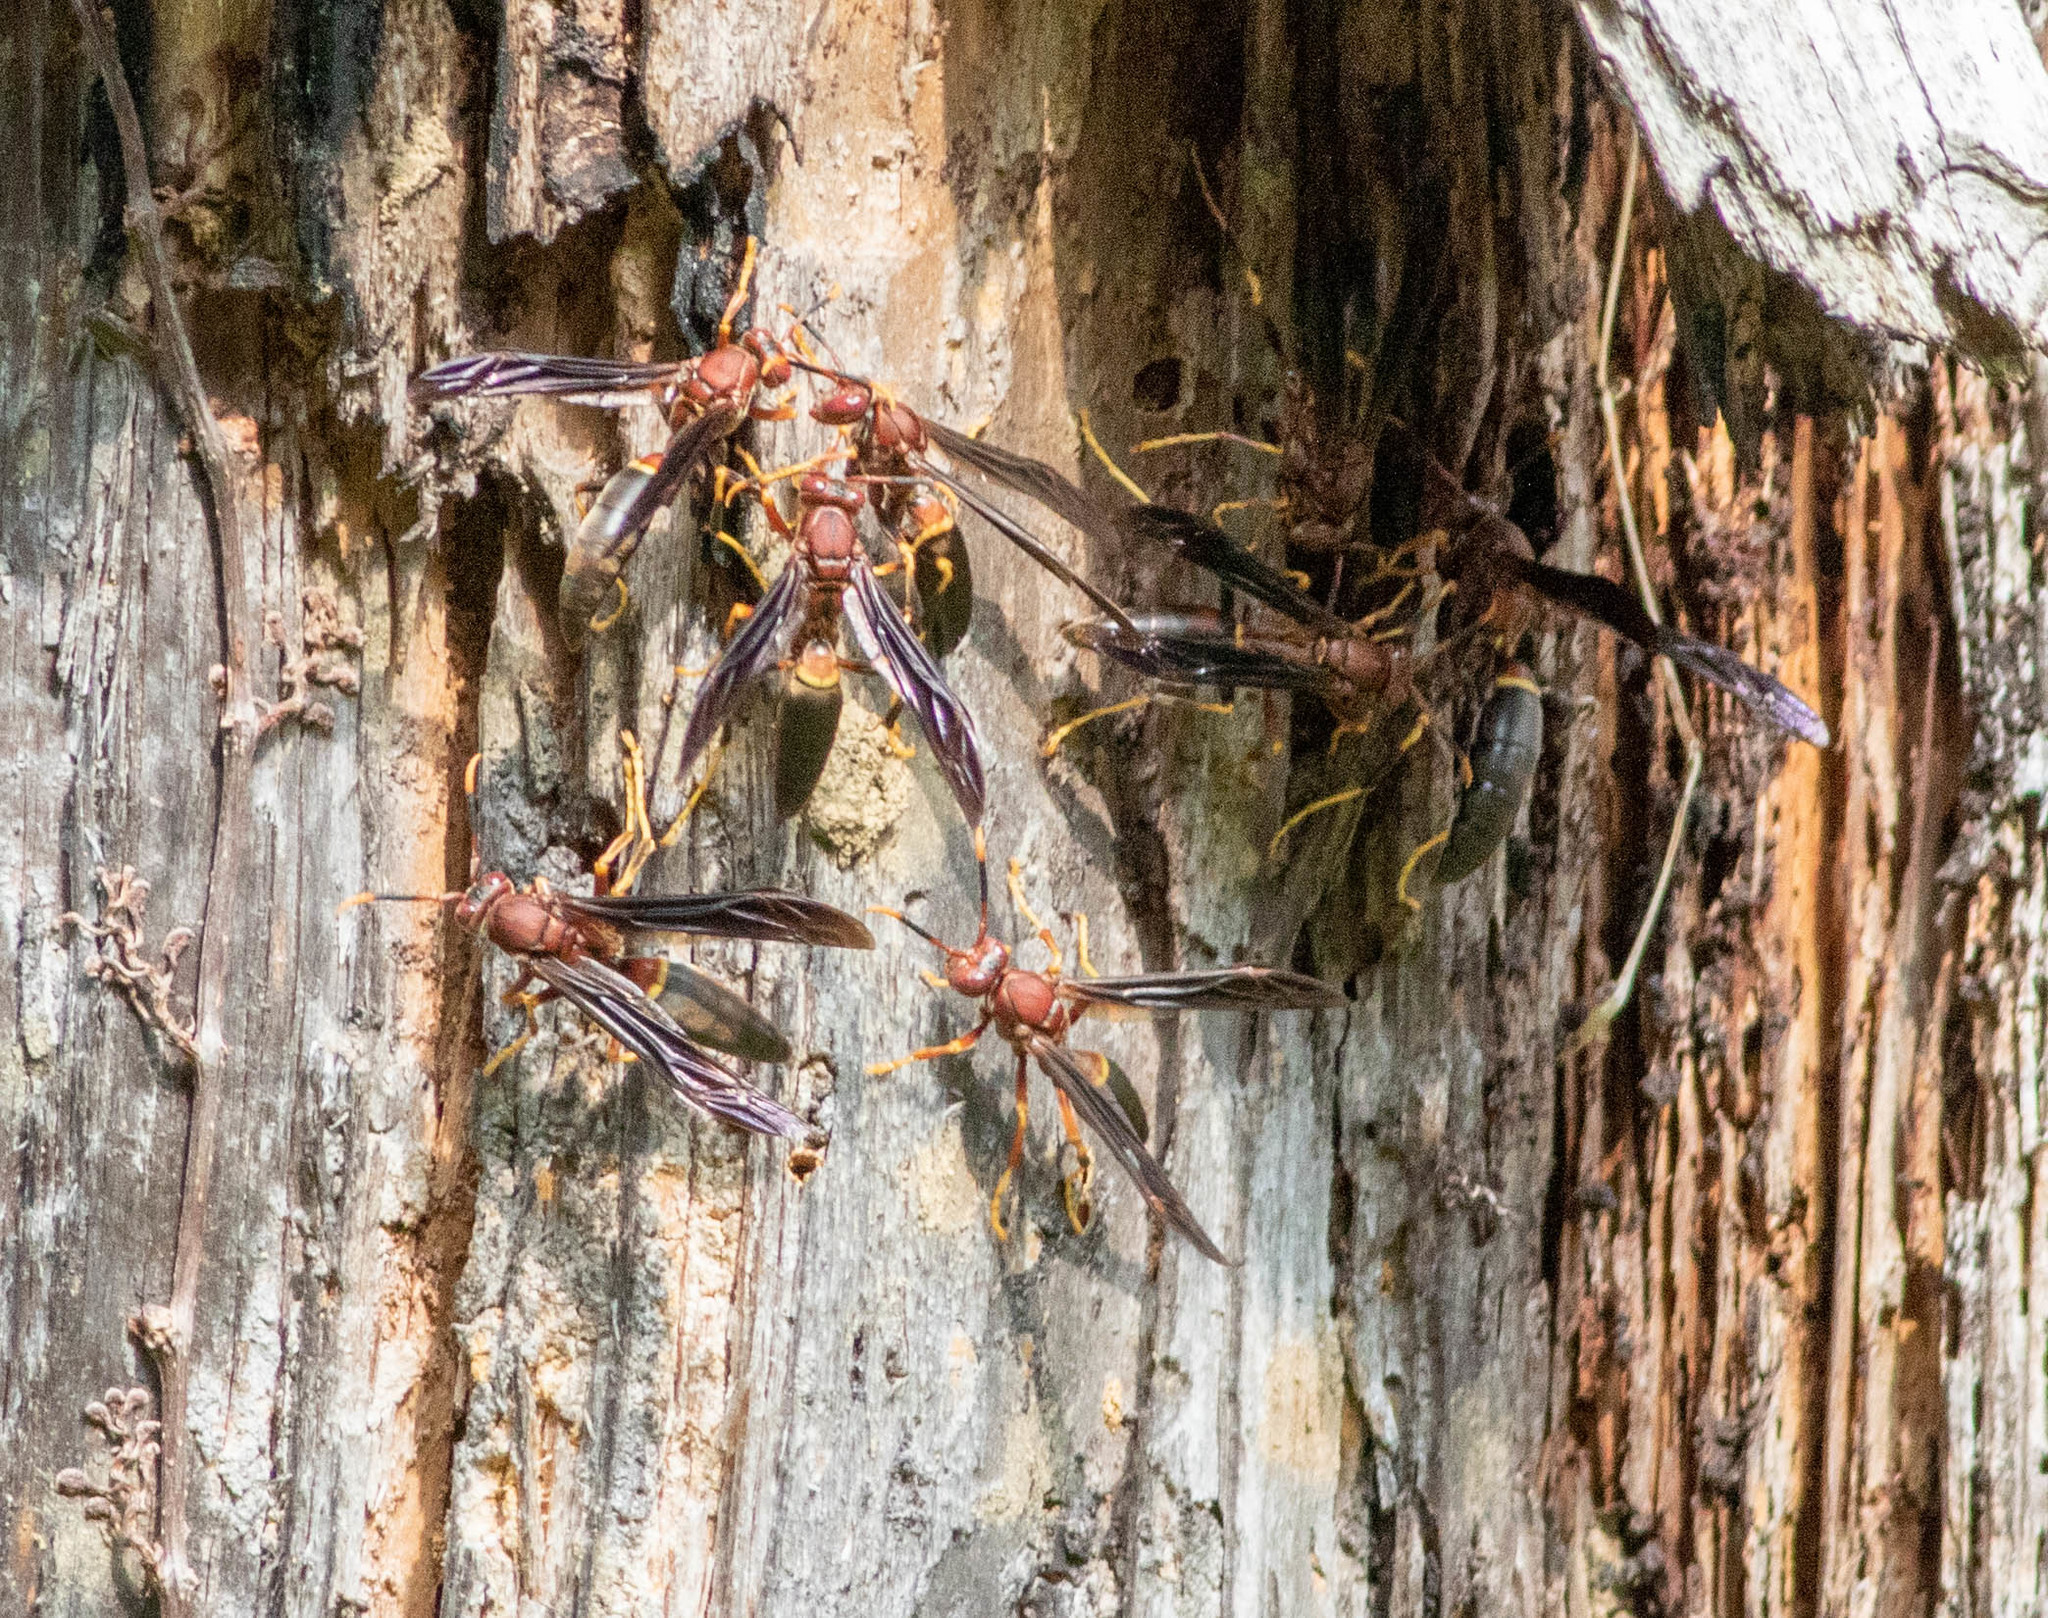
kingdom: Animalia
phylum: Arthropoda
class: Insecta
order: Hymenoptera
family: Eumenidae
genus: Polistes
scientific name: Polistes metricus
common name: Metric paper wasp
